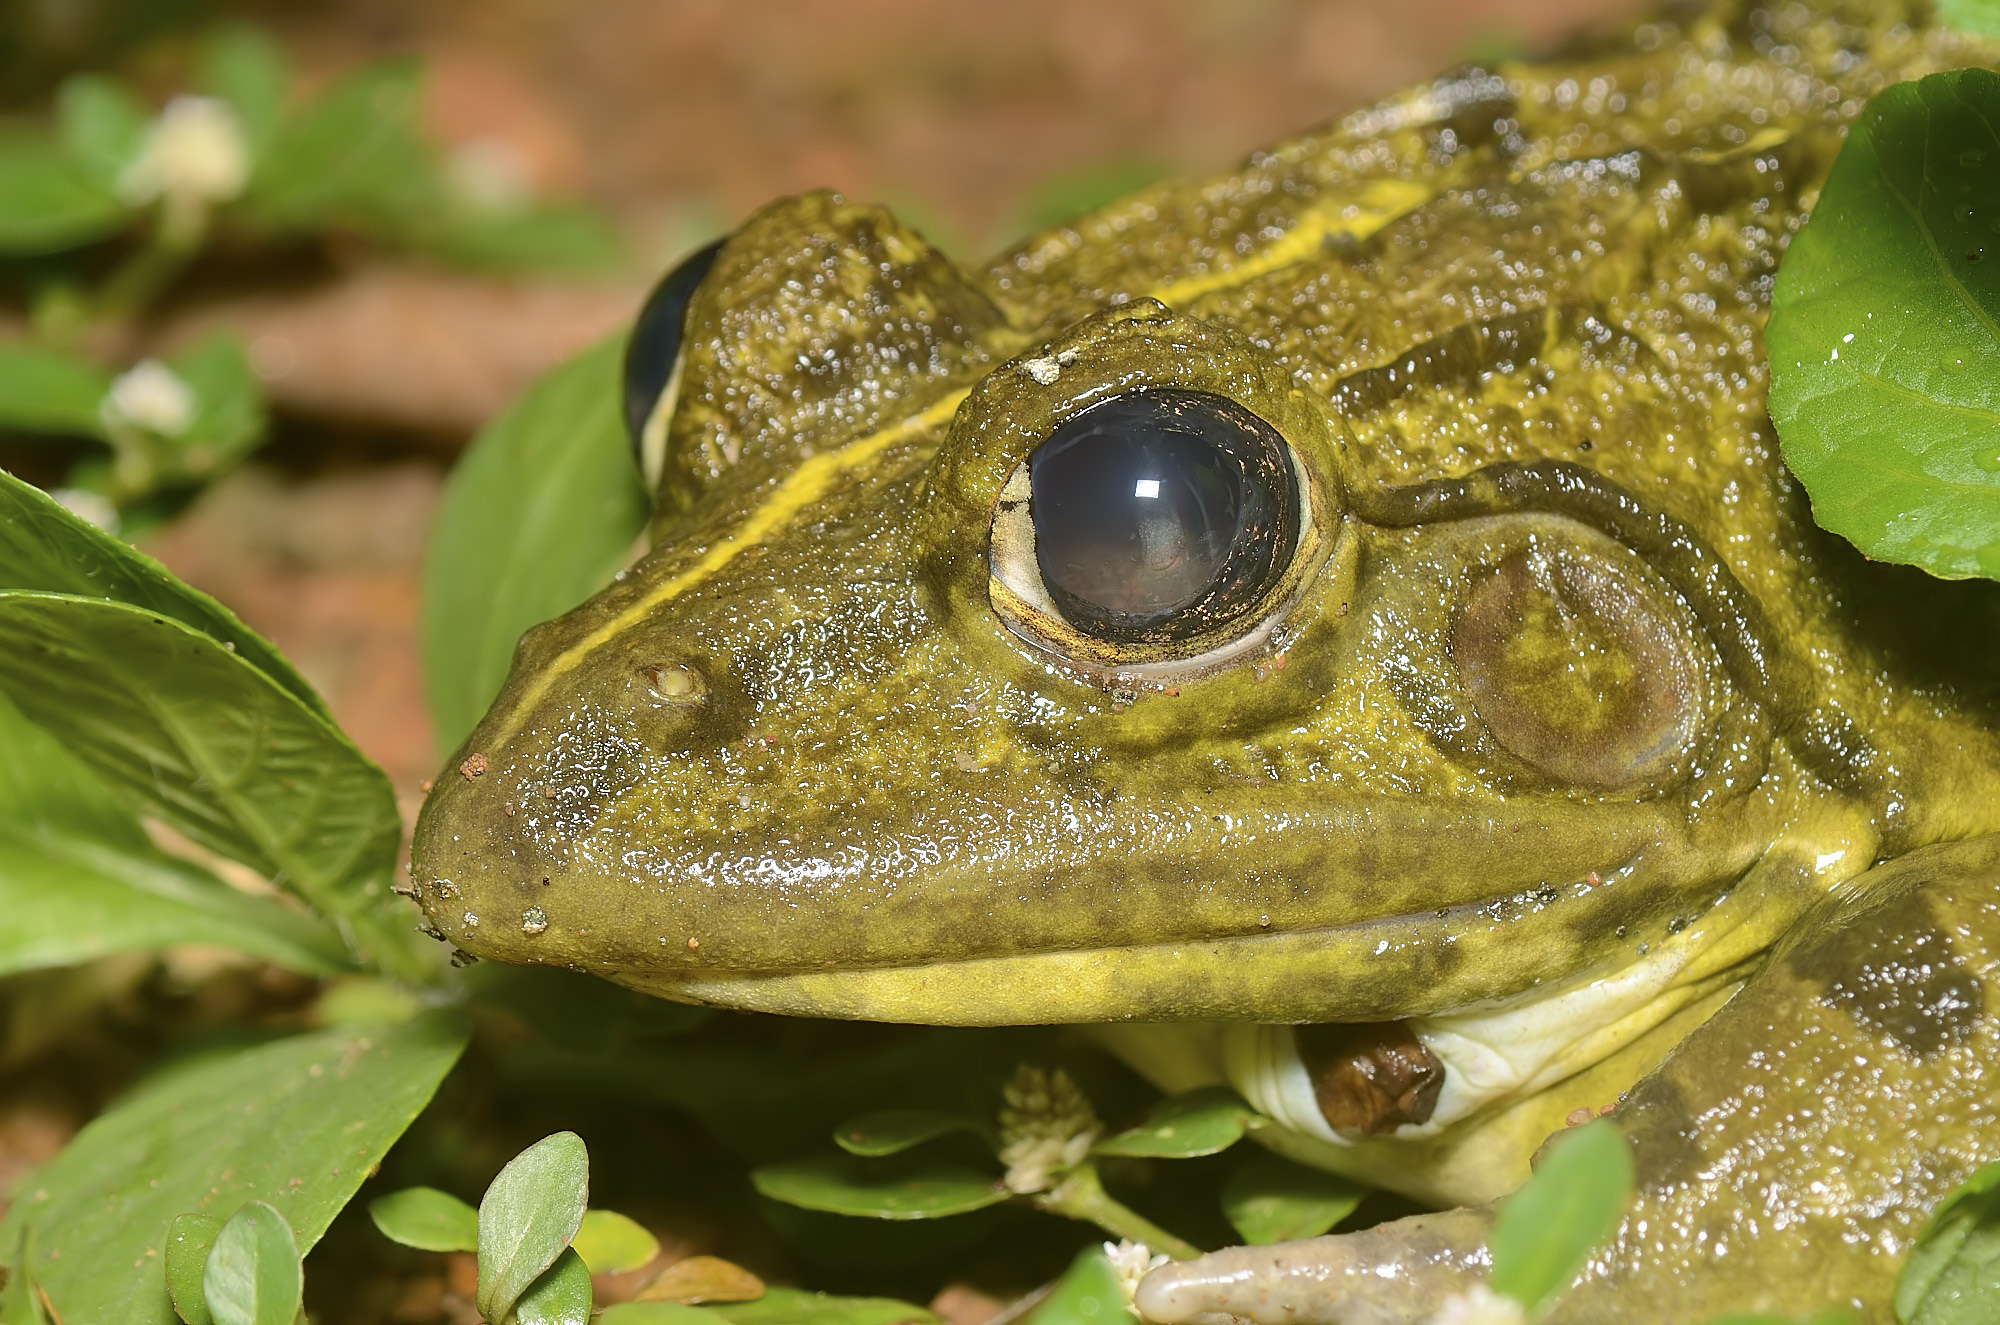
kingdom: Animalia
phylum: Chordata
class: Amphibia
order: Anura
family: Dicroglossidae
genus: Hoplobatrachus
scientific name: Hoplobatrachus tigerinus
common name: Indian bullfrog
